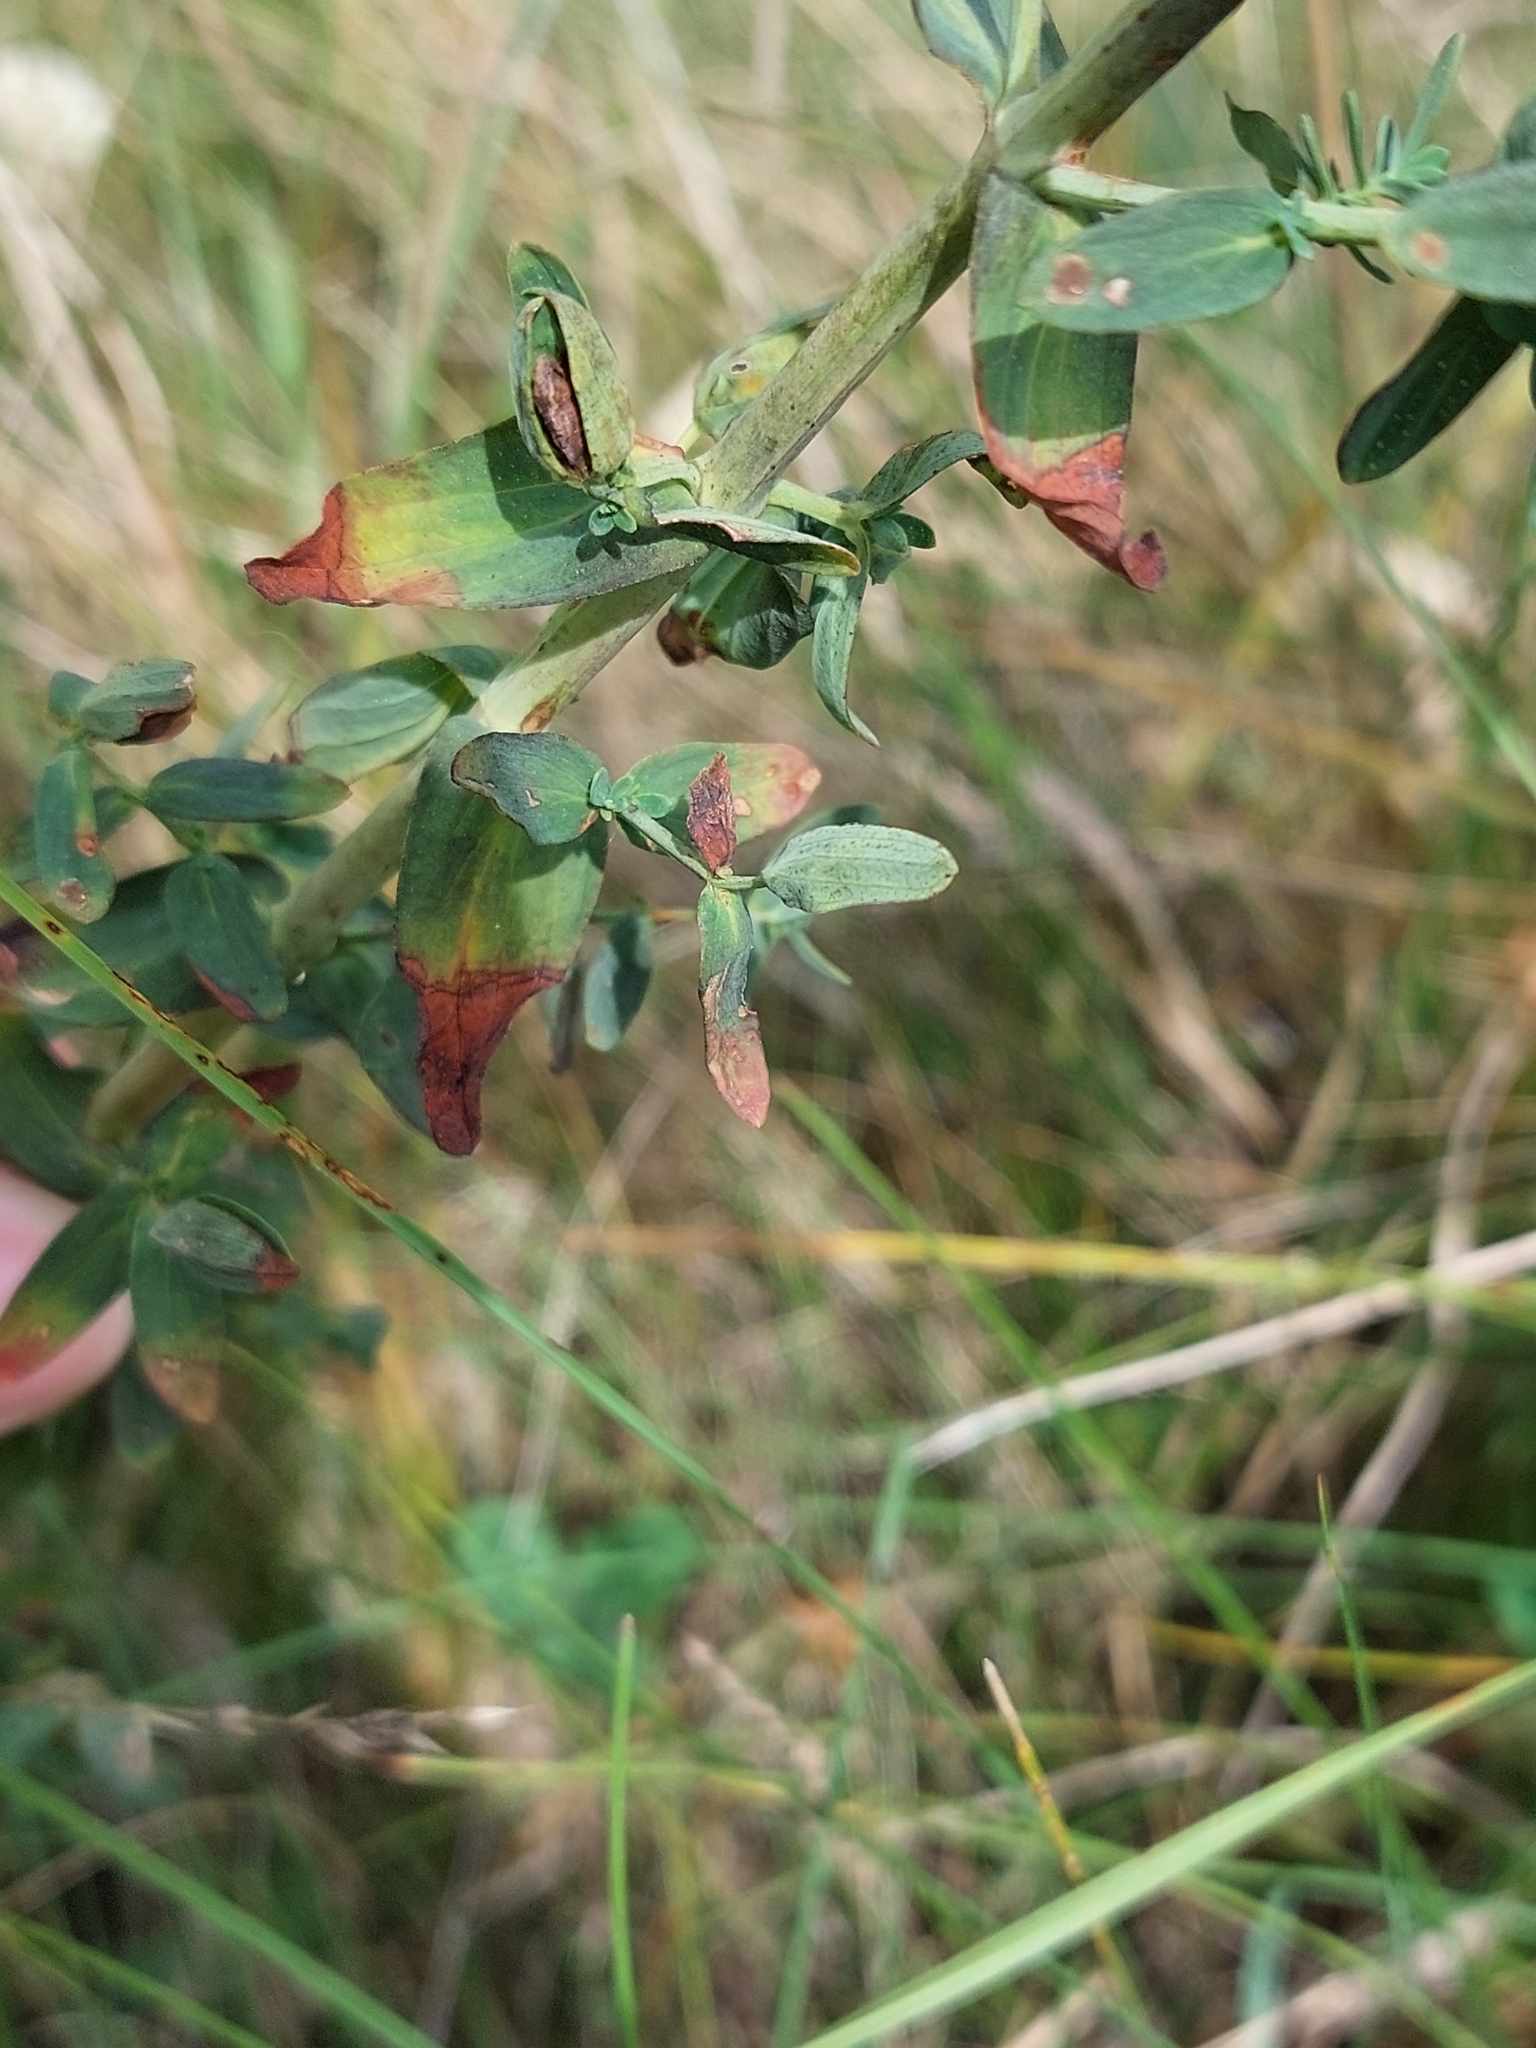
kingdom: Plantae
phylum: Tracheophyta
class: Magnoliopsida
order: Malpighiales
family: Hypericaceae
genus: Hypericum
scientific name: Hypericum perforatum
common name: Common st. johnswort
